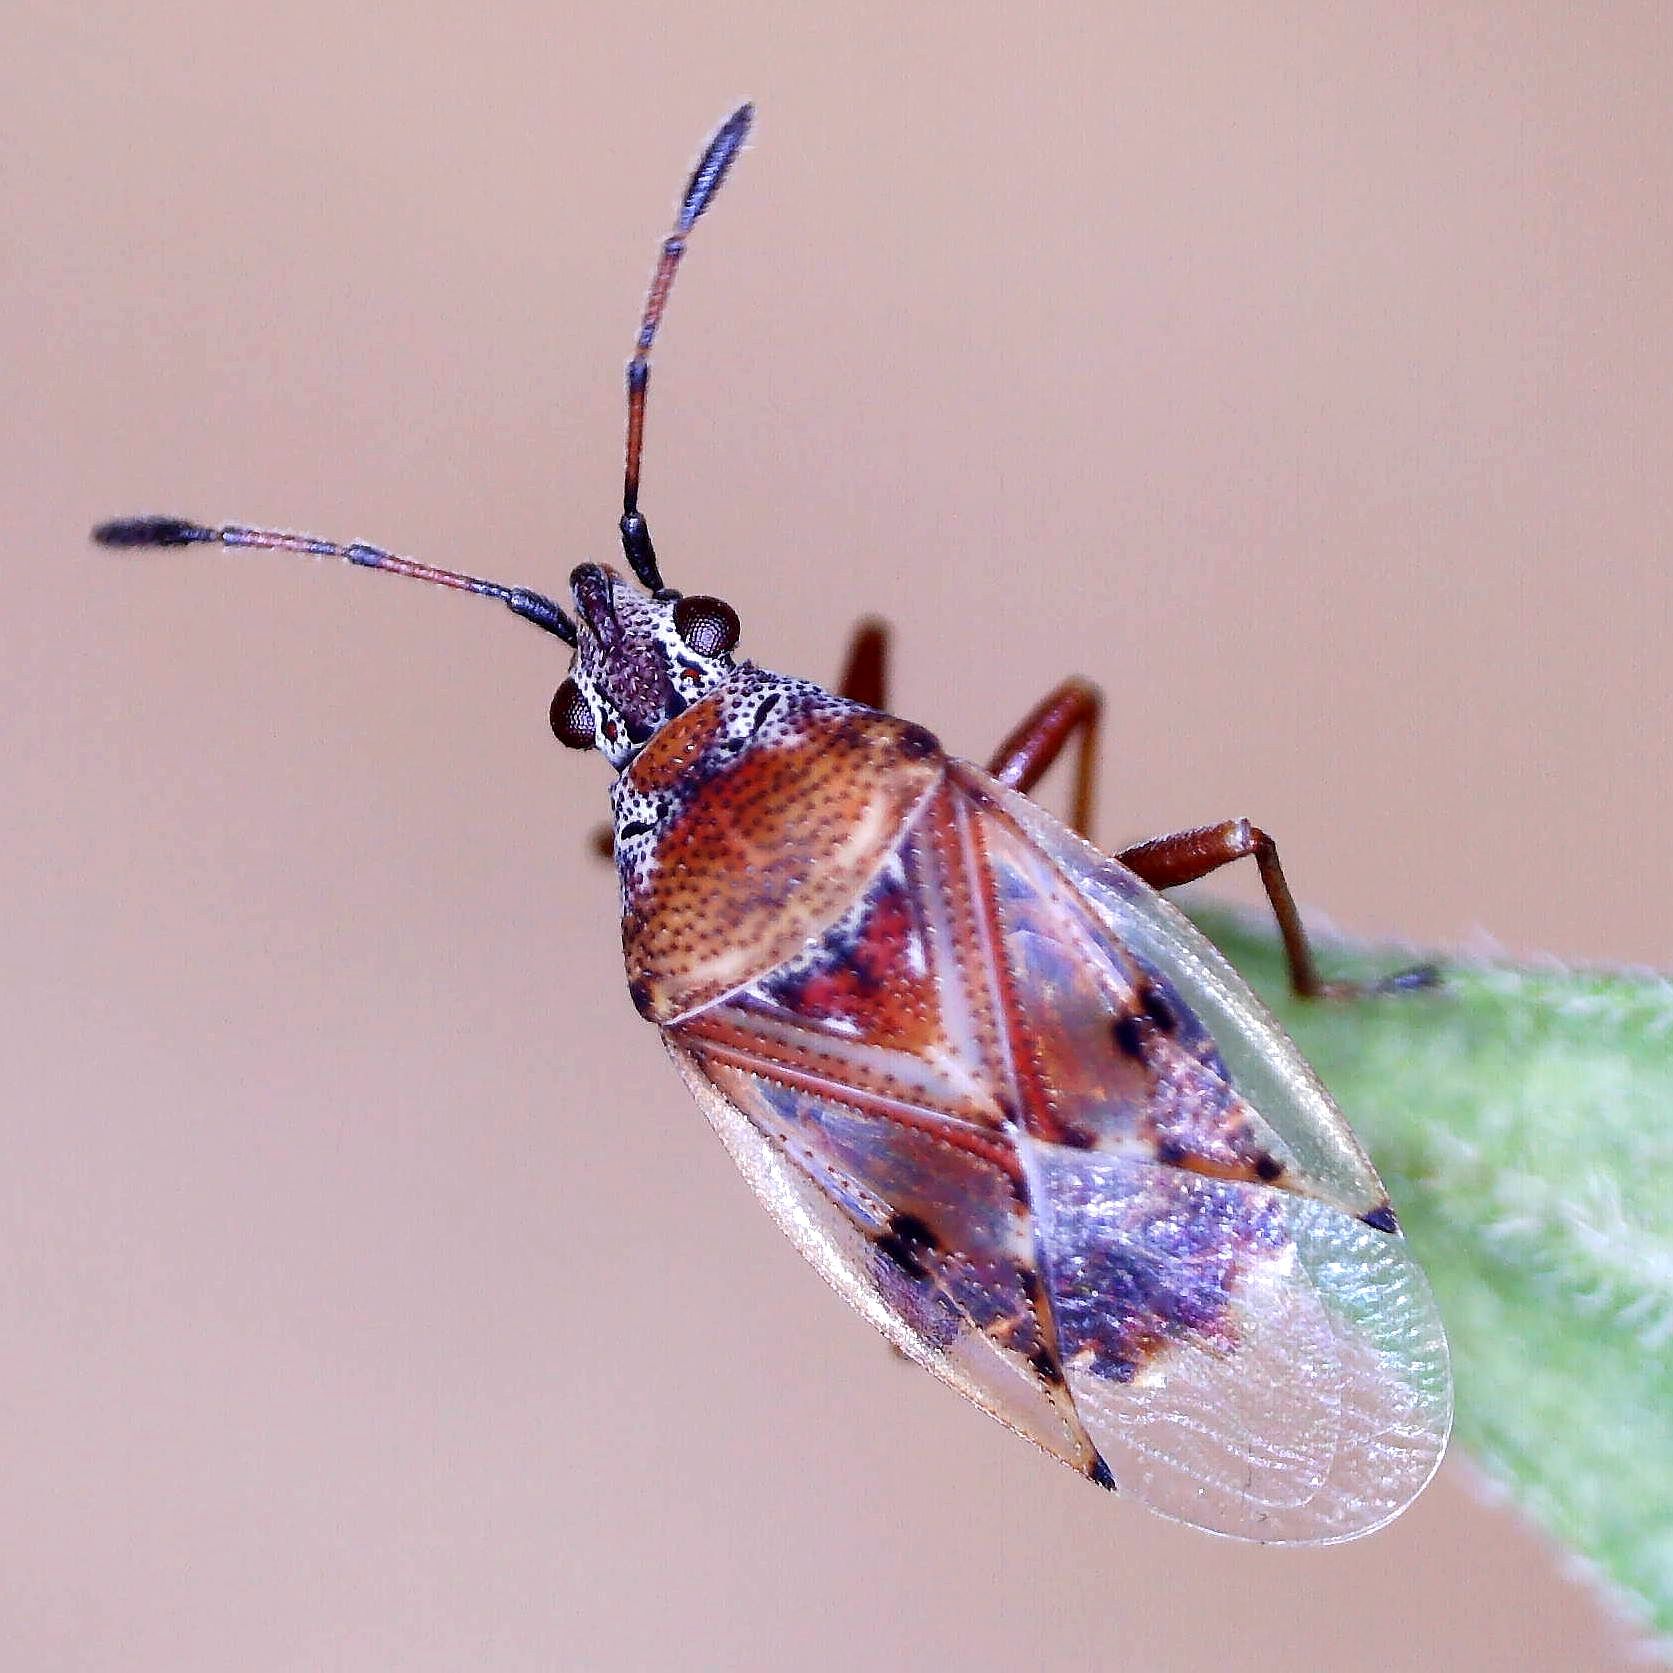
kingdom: Animalia
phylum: Arthropoda
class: Insecta
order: Hemiptera
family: Lygaeidae
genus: Kleidocerys
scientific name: Kleidocerys resedae
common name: Birch catkin bug
